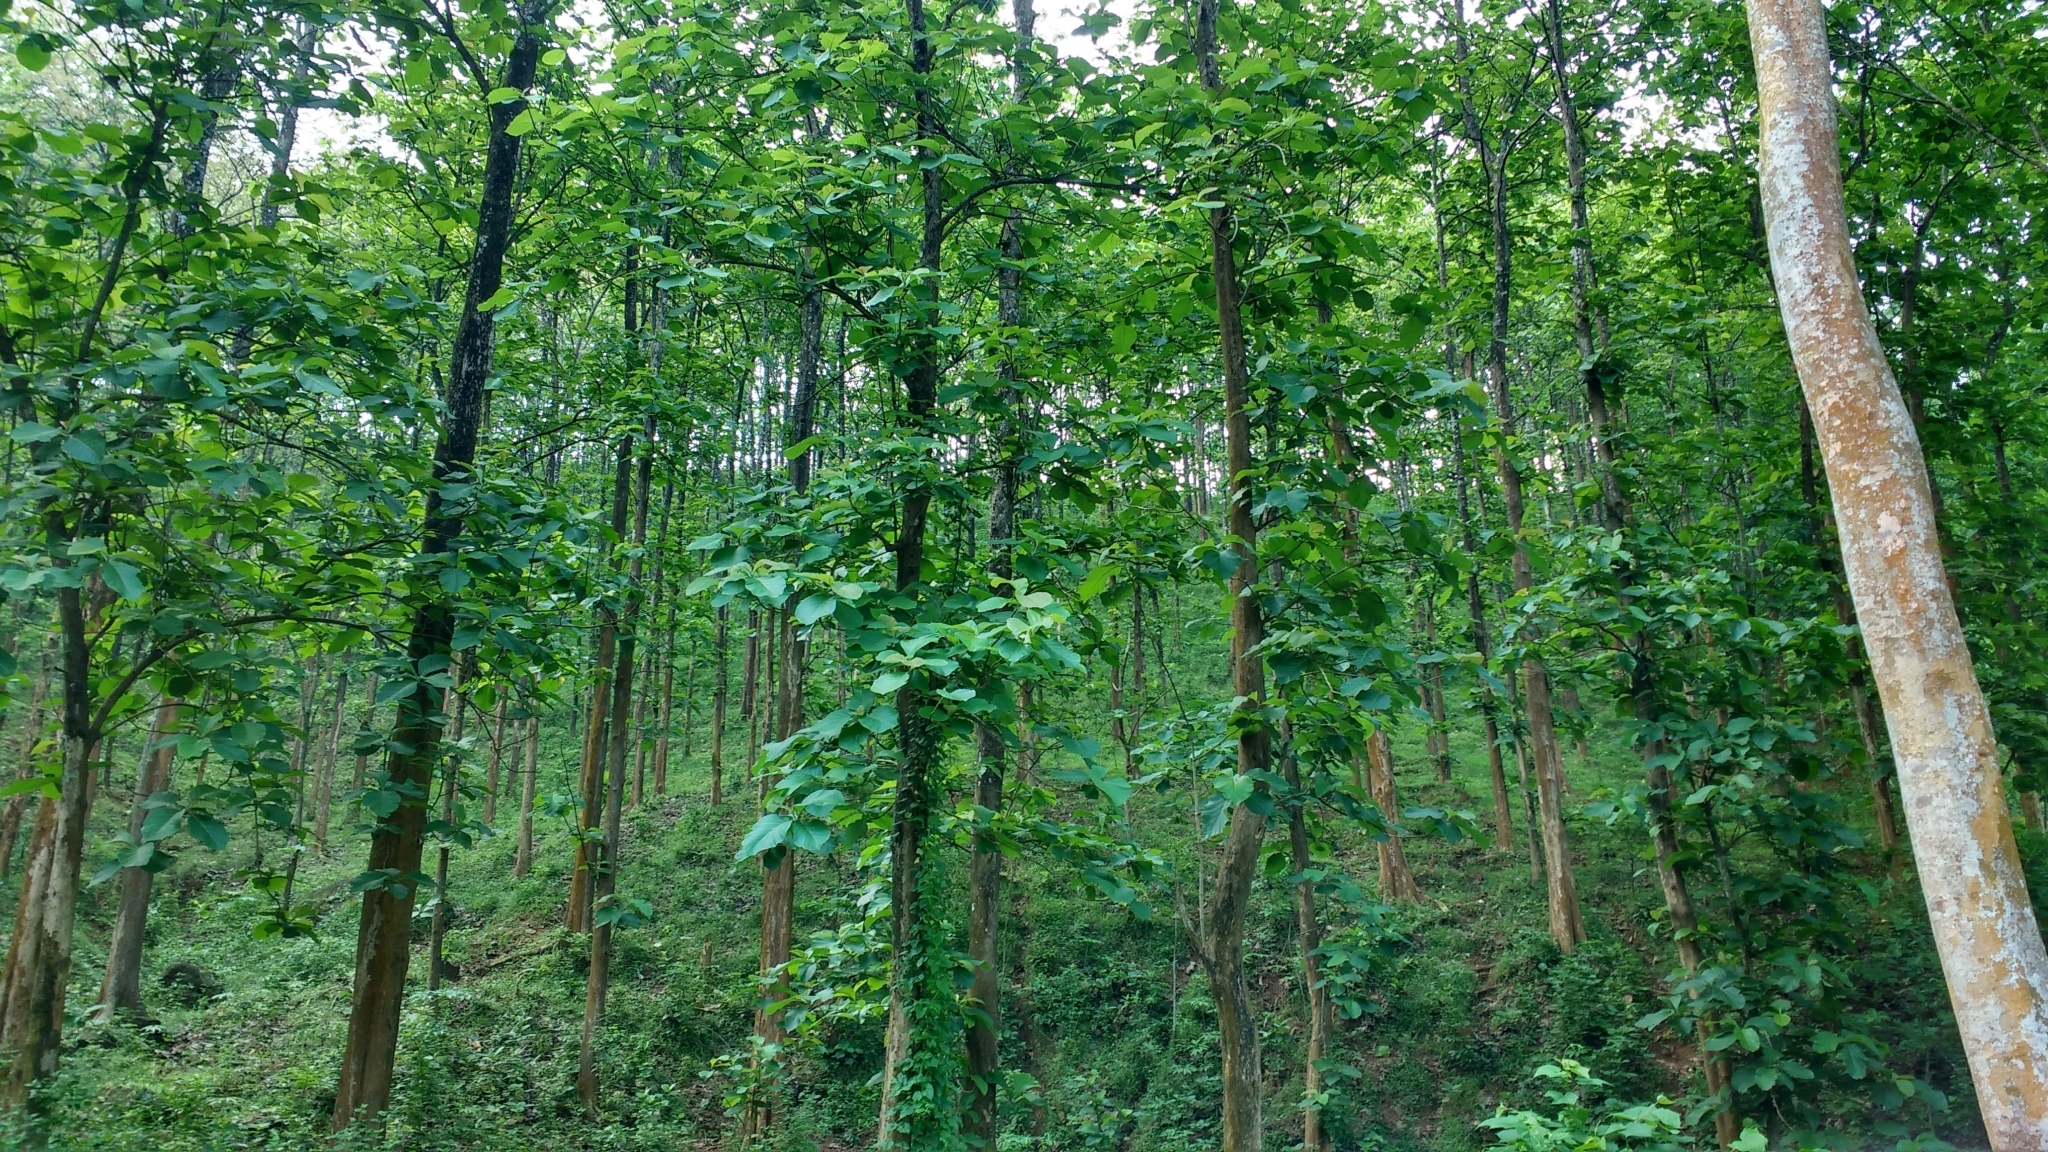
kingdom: Plantae
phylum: Tracheophyta
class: Magnoliopsida
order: Lamiales
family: Lamiaceae
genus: Tectona
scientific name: Tectona grandis
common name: Teak
